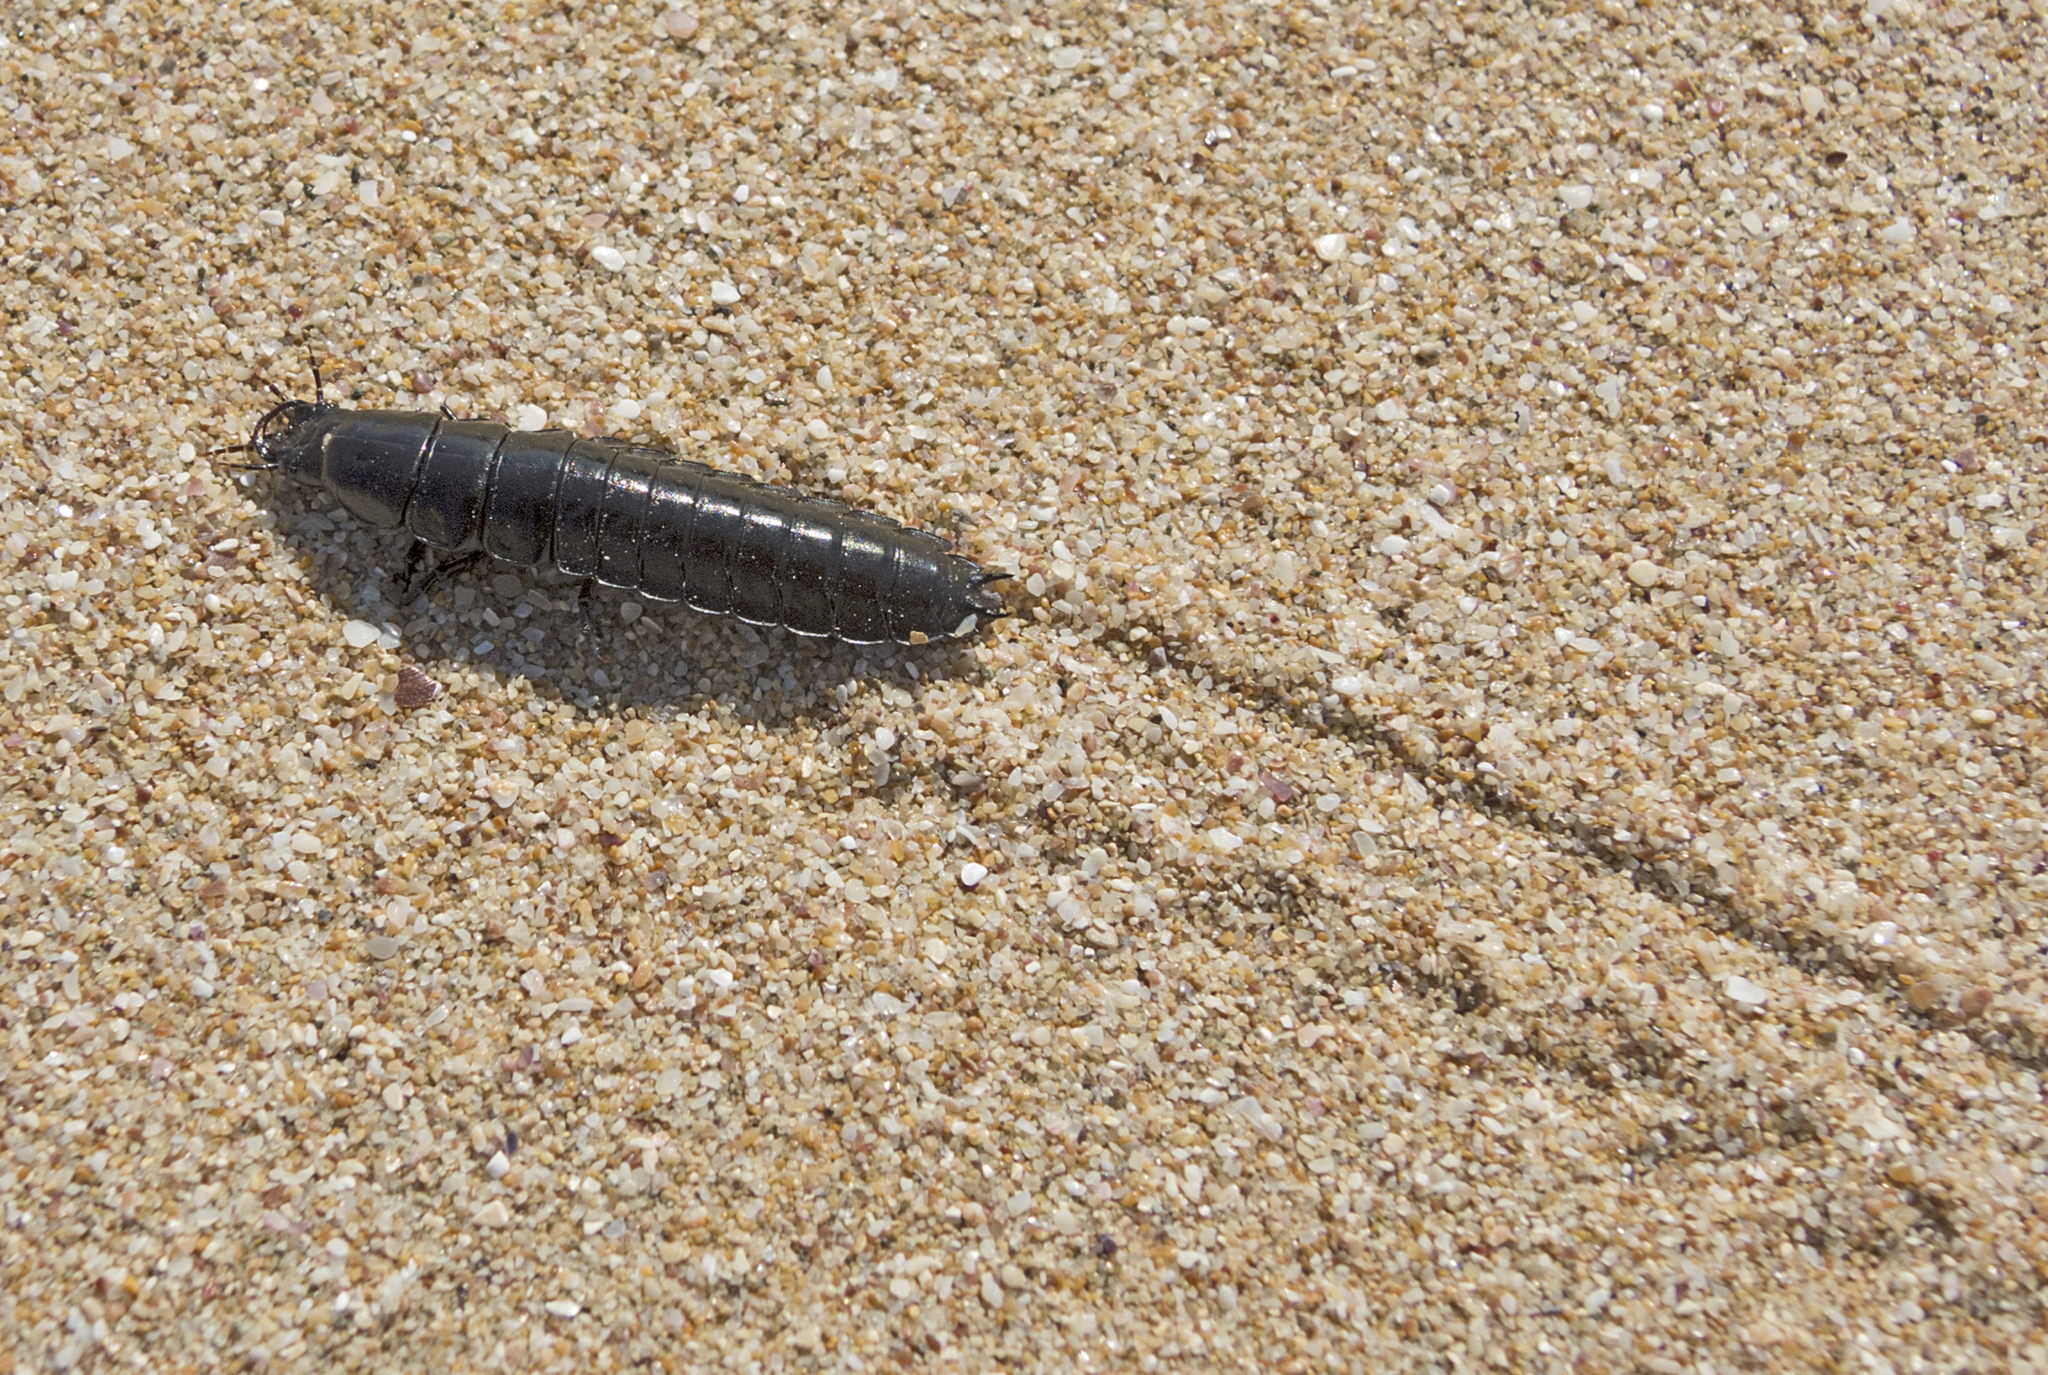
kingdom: Animalia
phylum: Arthropoda
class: Insecta
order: Coleoptera
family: Carabidae
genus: Carabus
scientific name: Carabus
